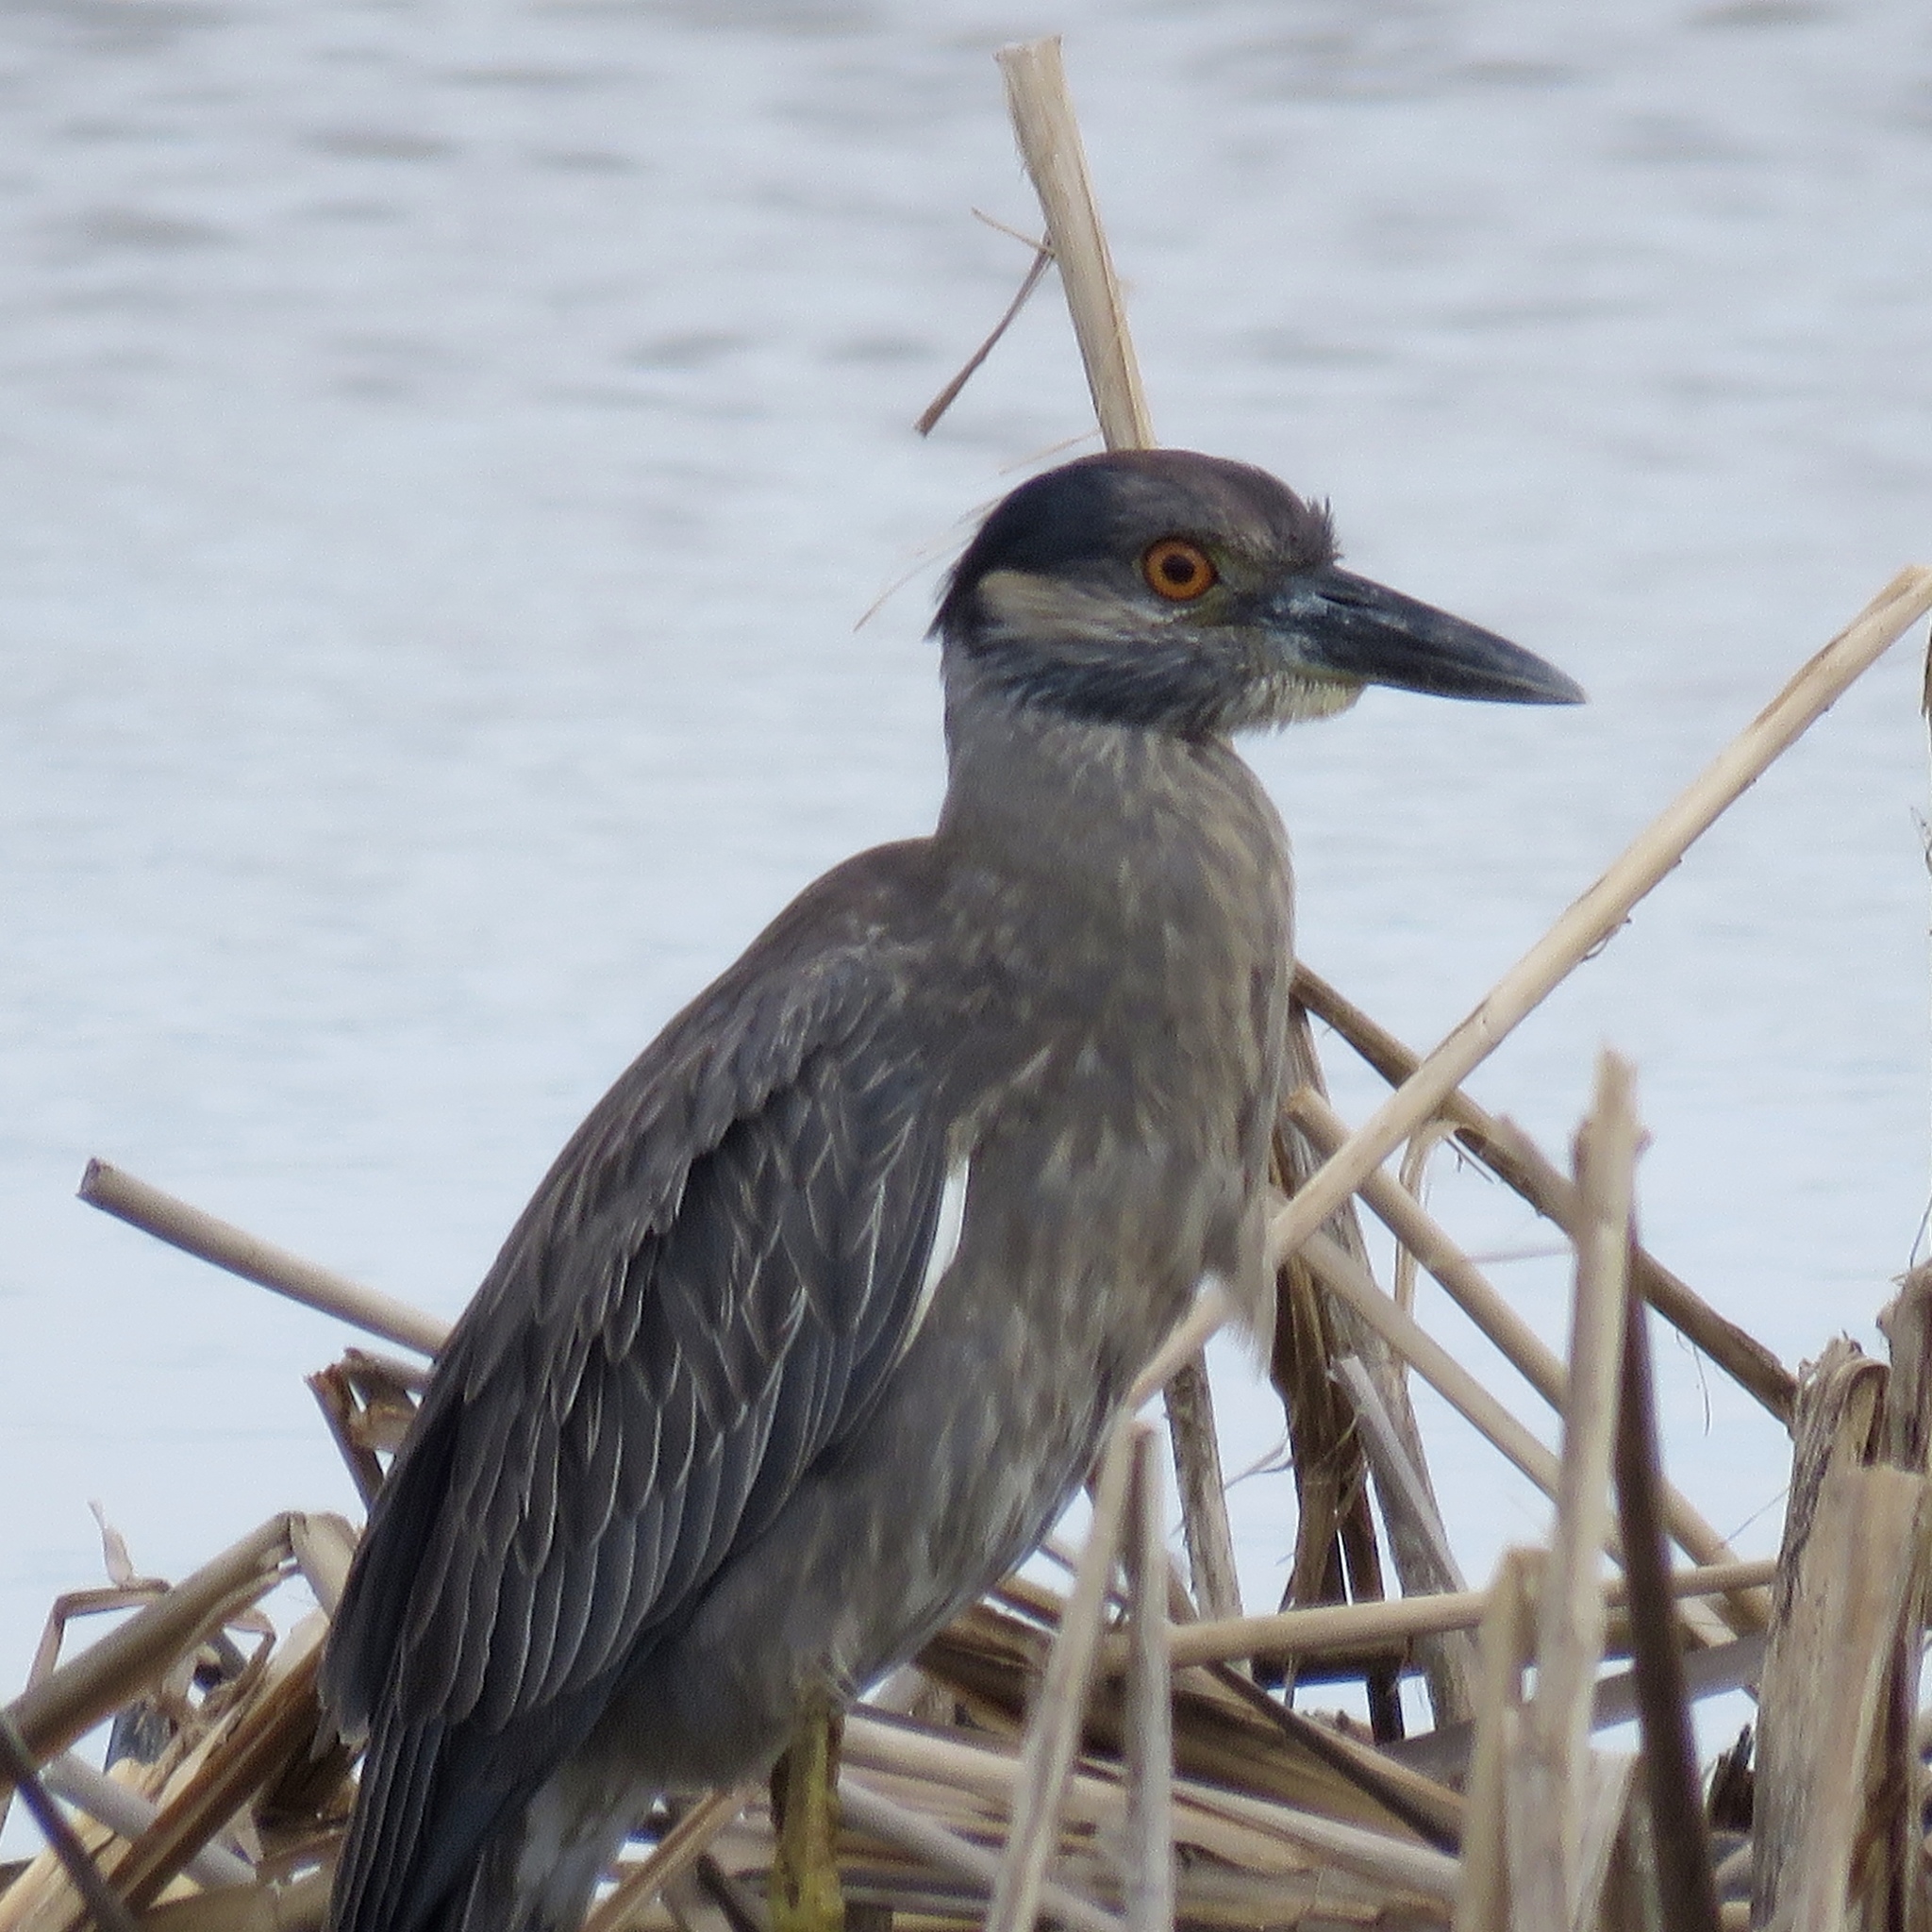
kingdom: Animalia
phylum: Chordata
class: Aves
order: Pelecaniformes
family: Ardeidae
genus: Nyctanassa
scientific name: Nyctanassa violacea
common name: Yellow-crowned night heron
